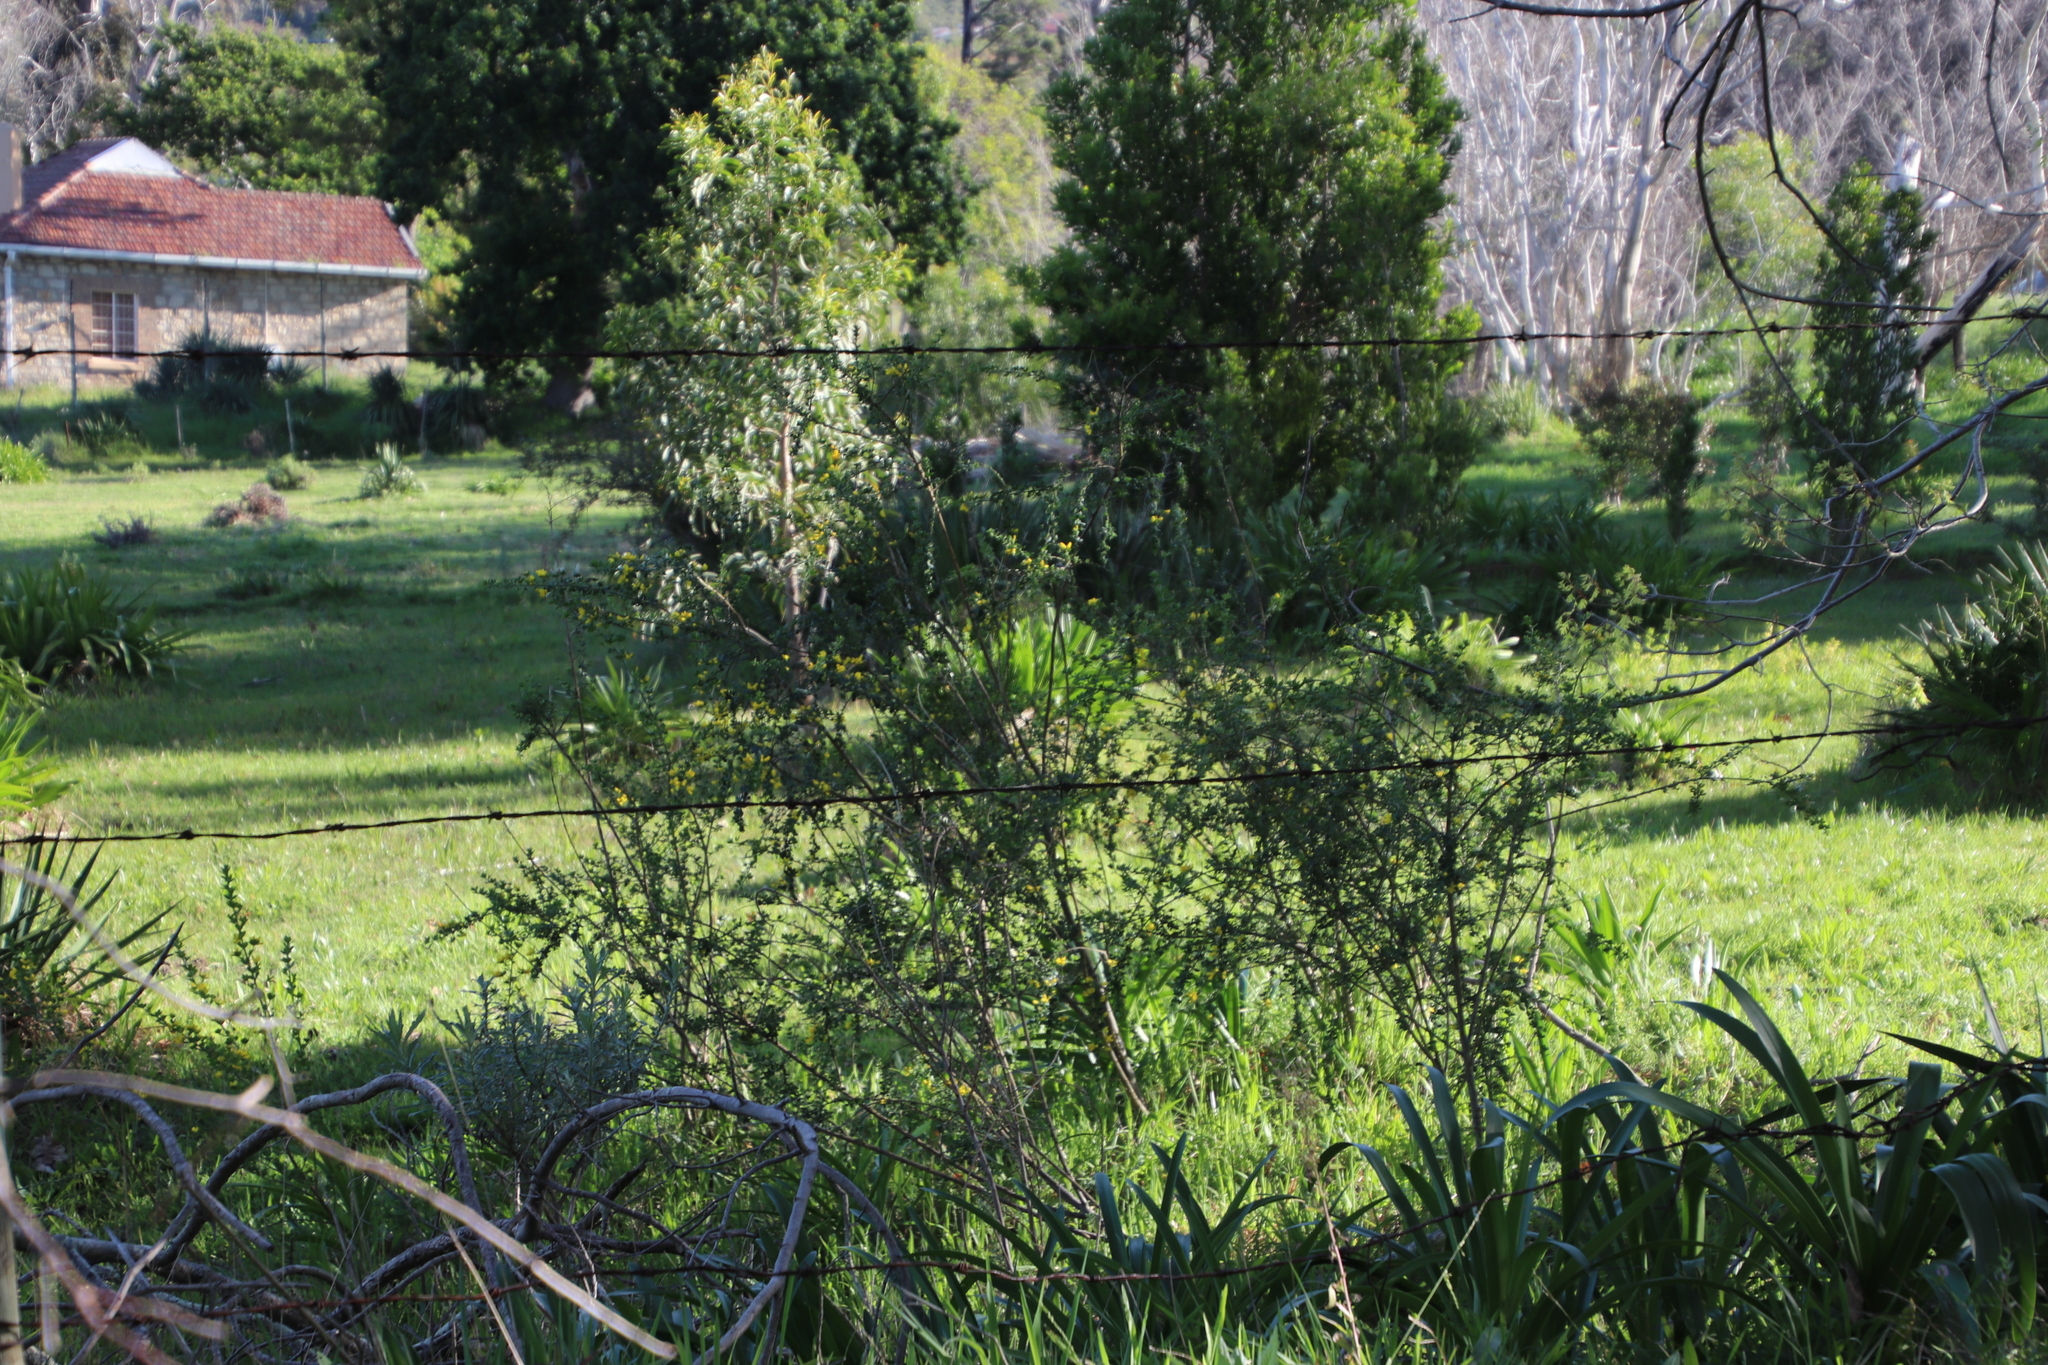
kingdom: Plantae
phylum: Tracheophyta
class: Magnoliopsida
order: Fabales
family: Fabaceae
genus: Genista
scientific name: Genista monspessulana
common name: Montpellier broom
